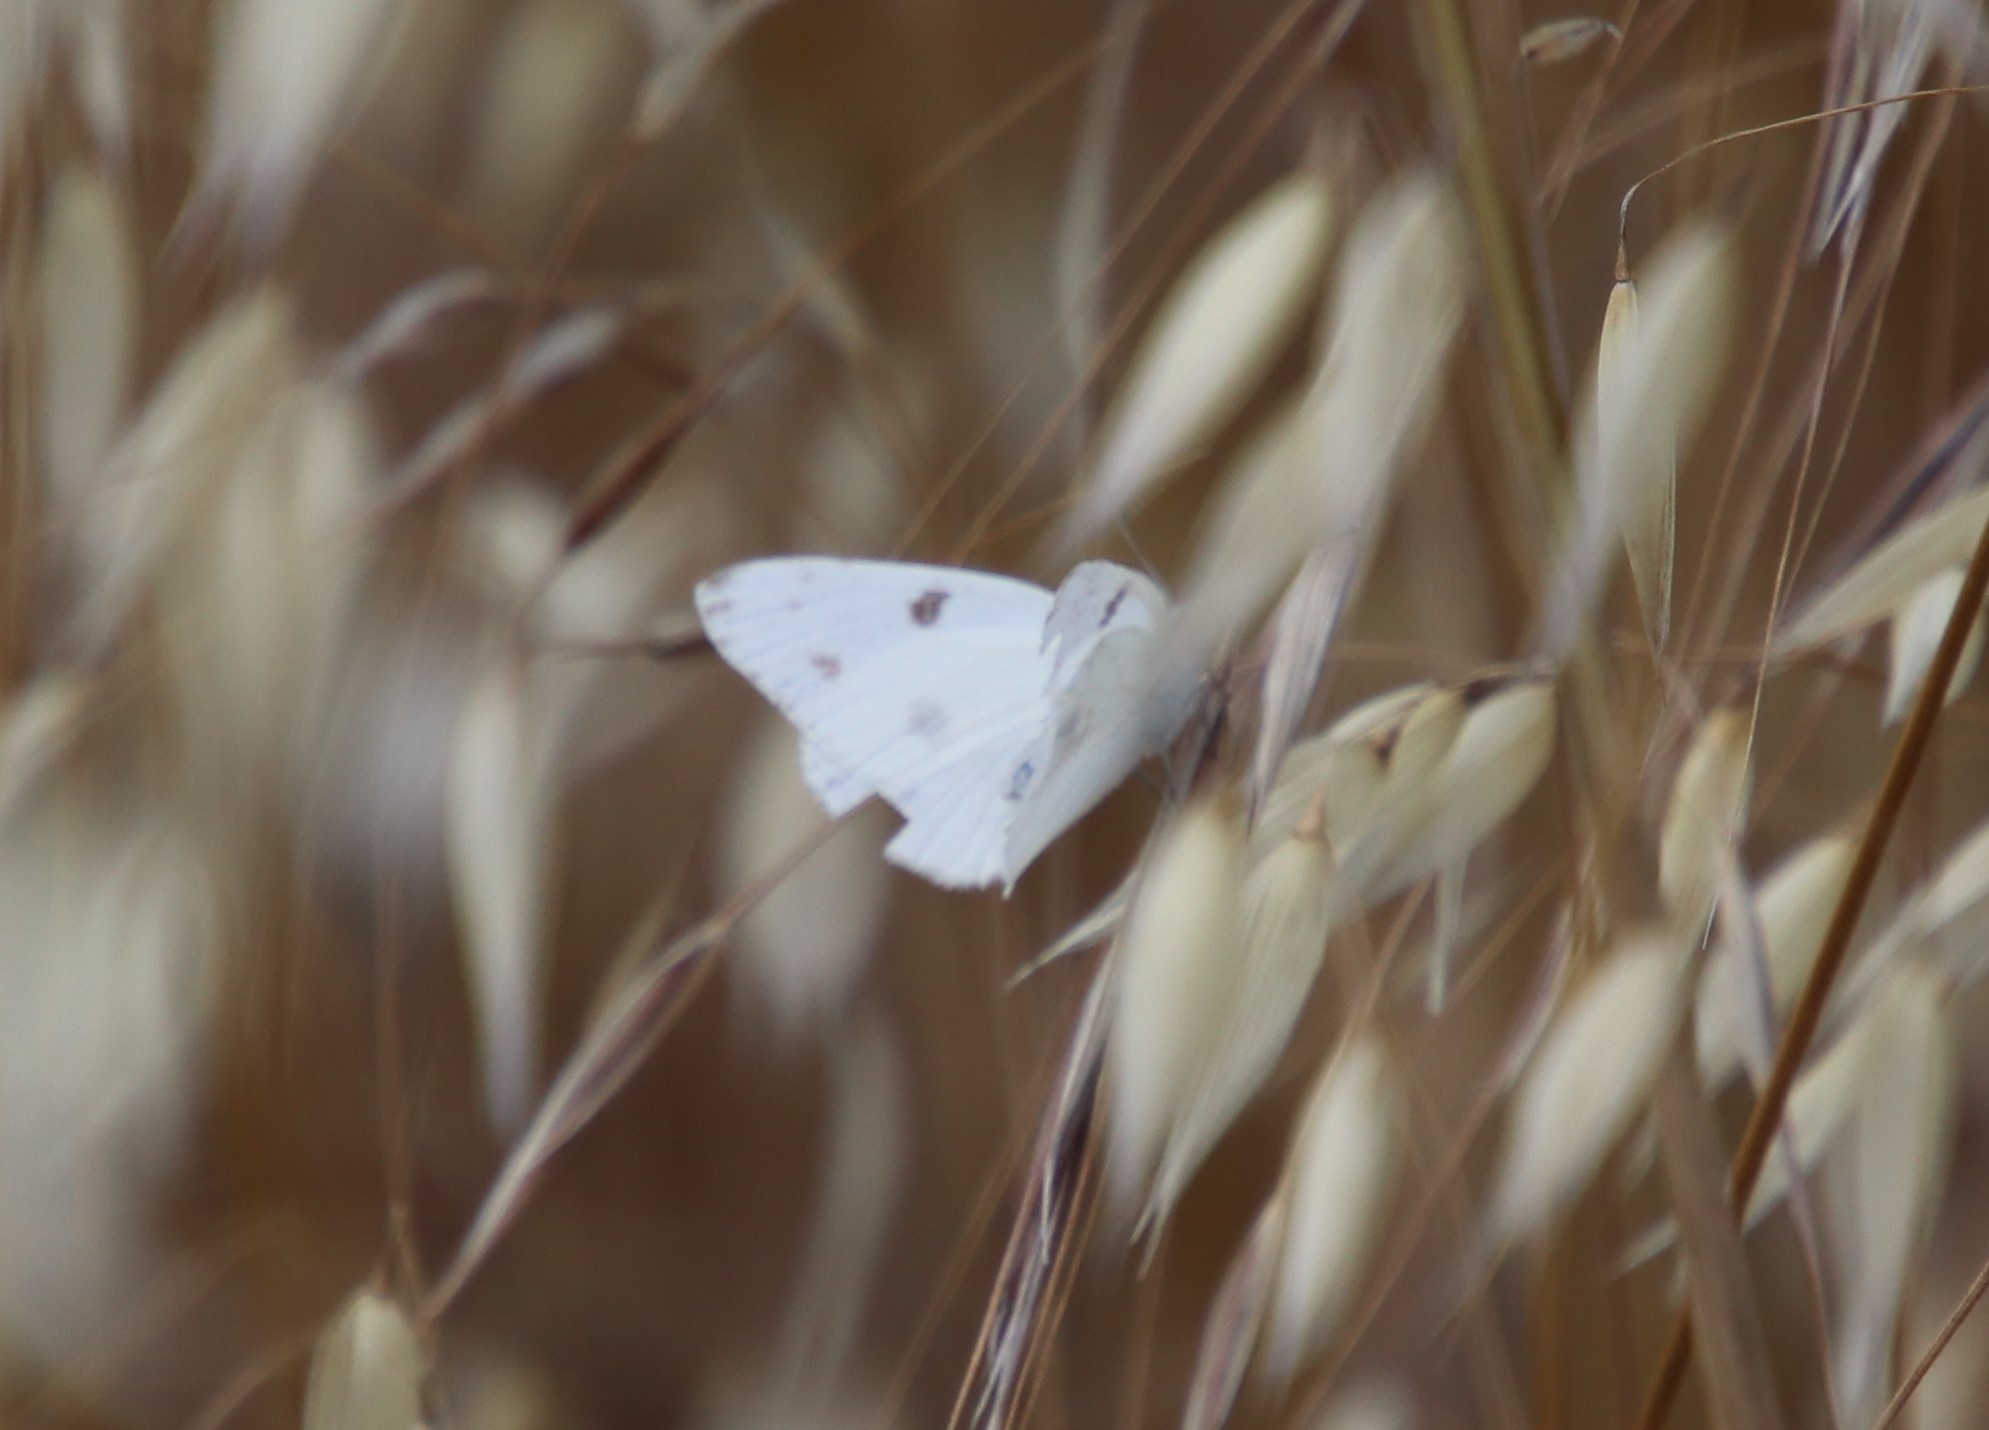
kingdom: Animalia
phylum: Arthropoda
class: Insecta
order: Lepidoptera
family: Pieridae
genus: Pontia
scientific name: Pontia protodice
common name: Checkered white
